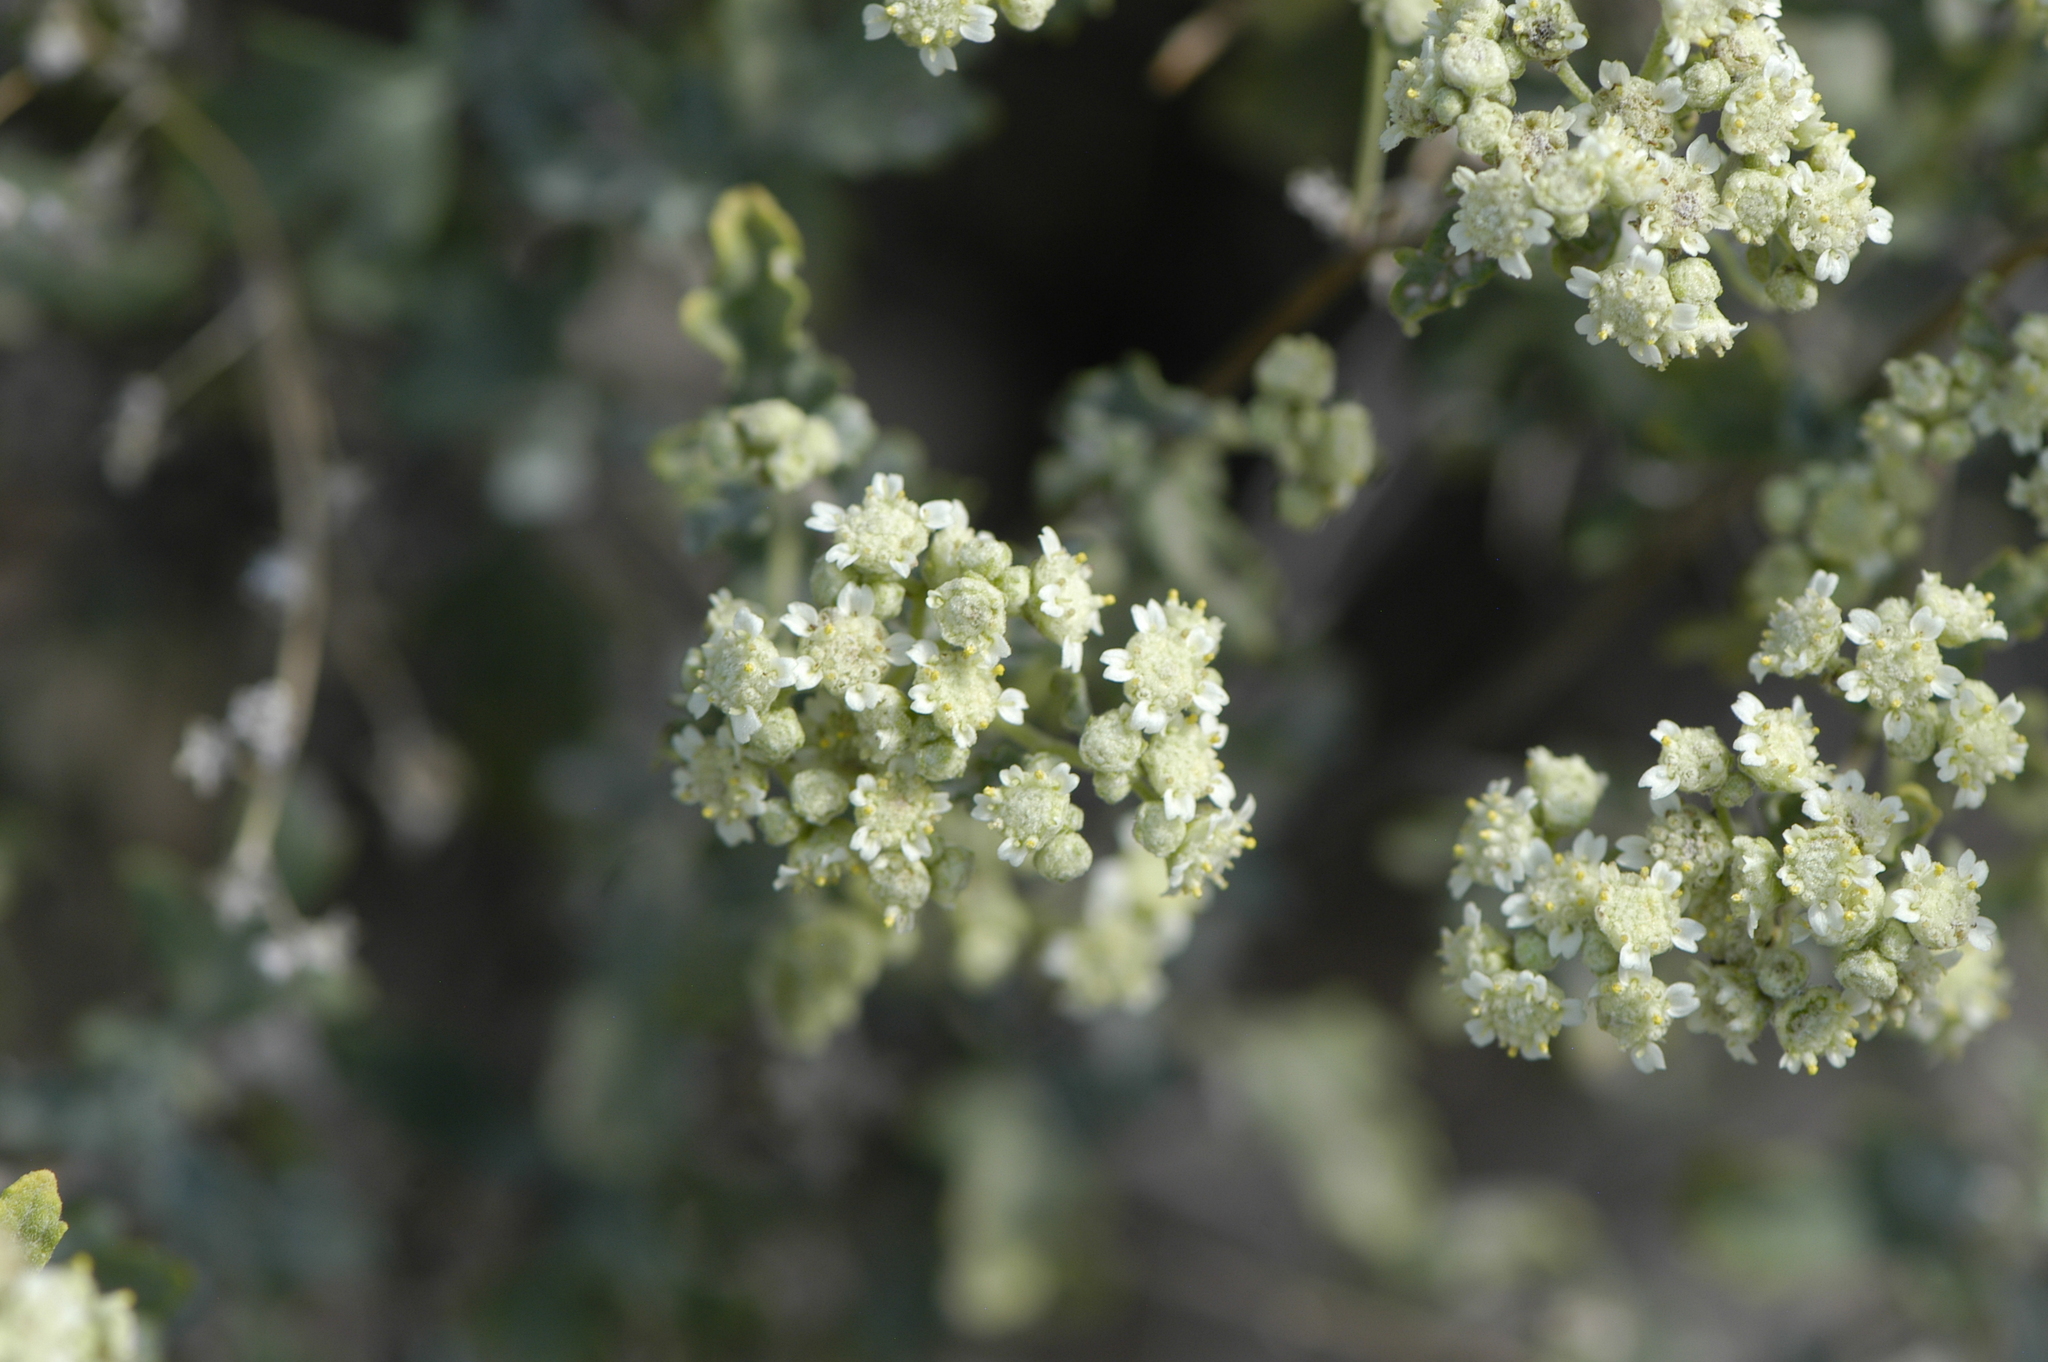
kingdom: Plantae
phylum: Tracheophyta
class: Magnoliopsida
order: Asterales
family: Asteraceae
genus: Parthenium
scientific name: Parthenium incanum
